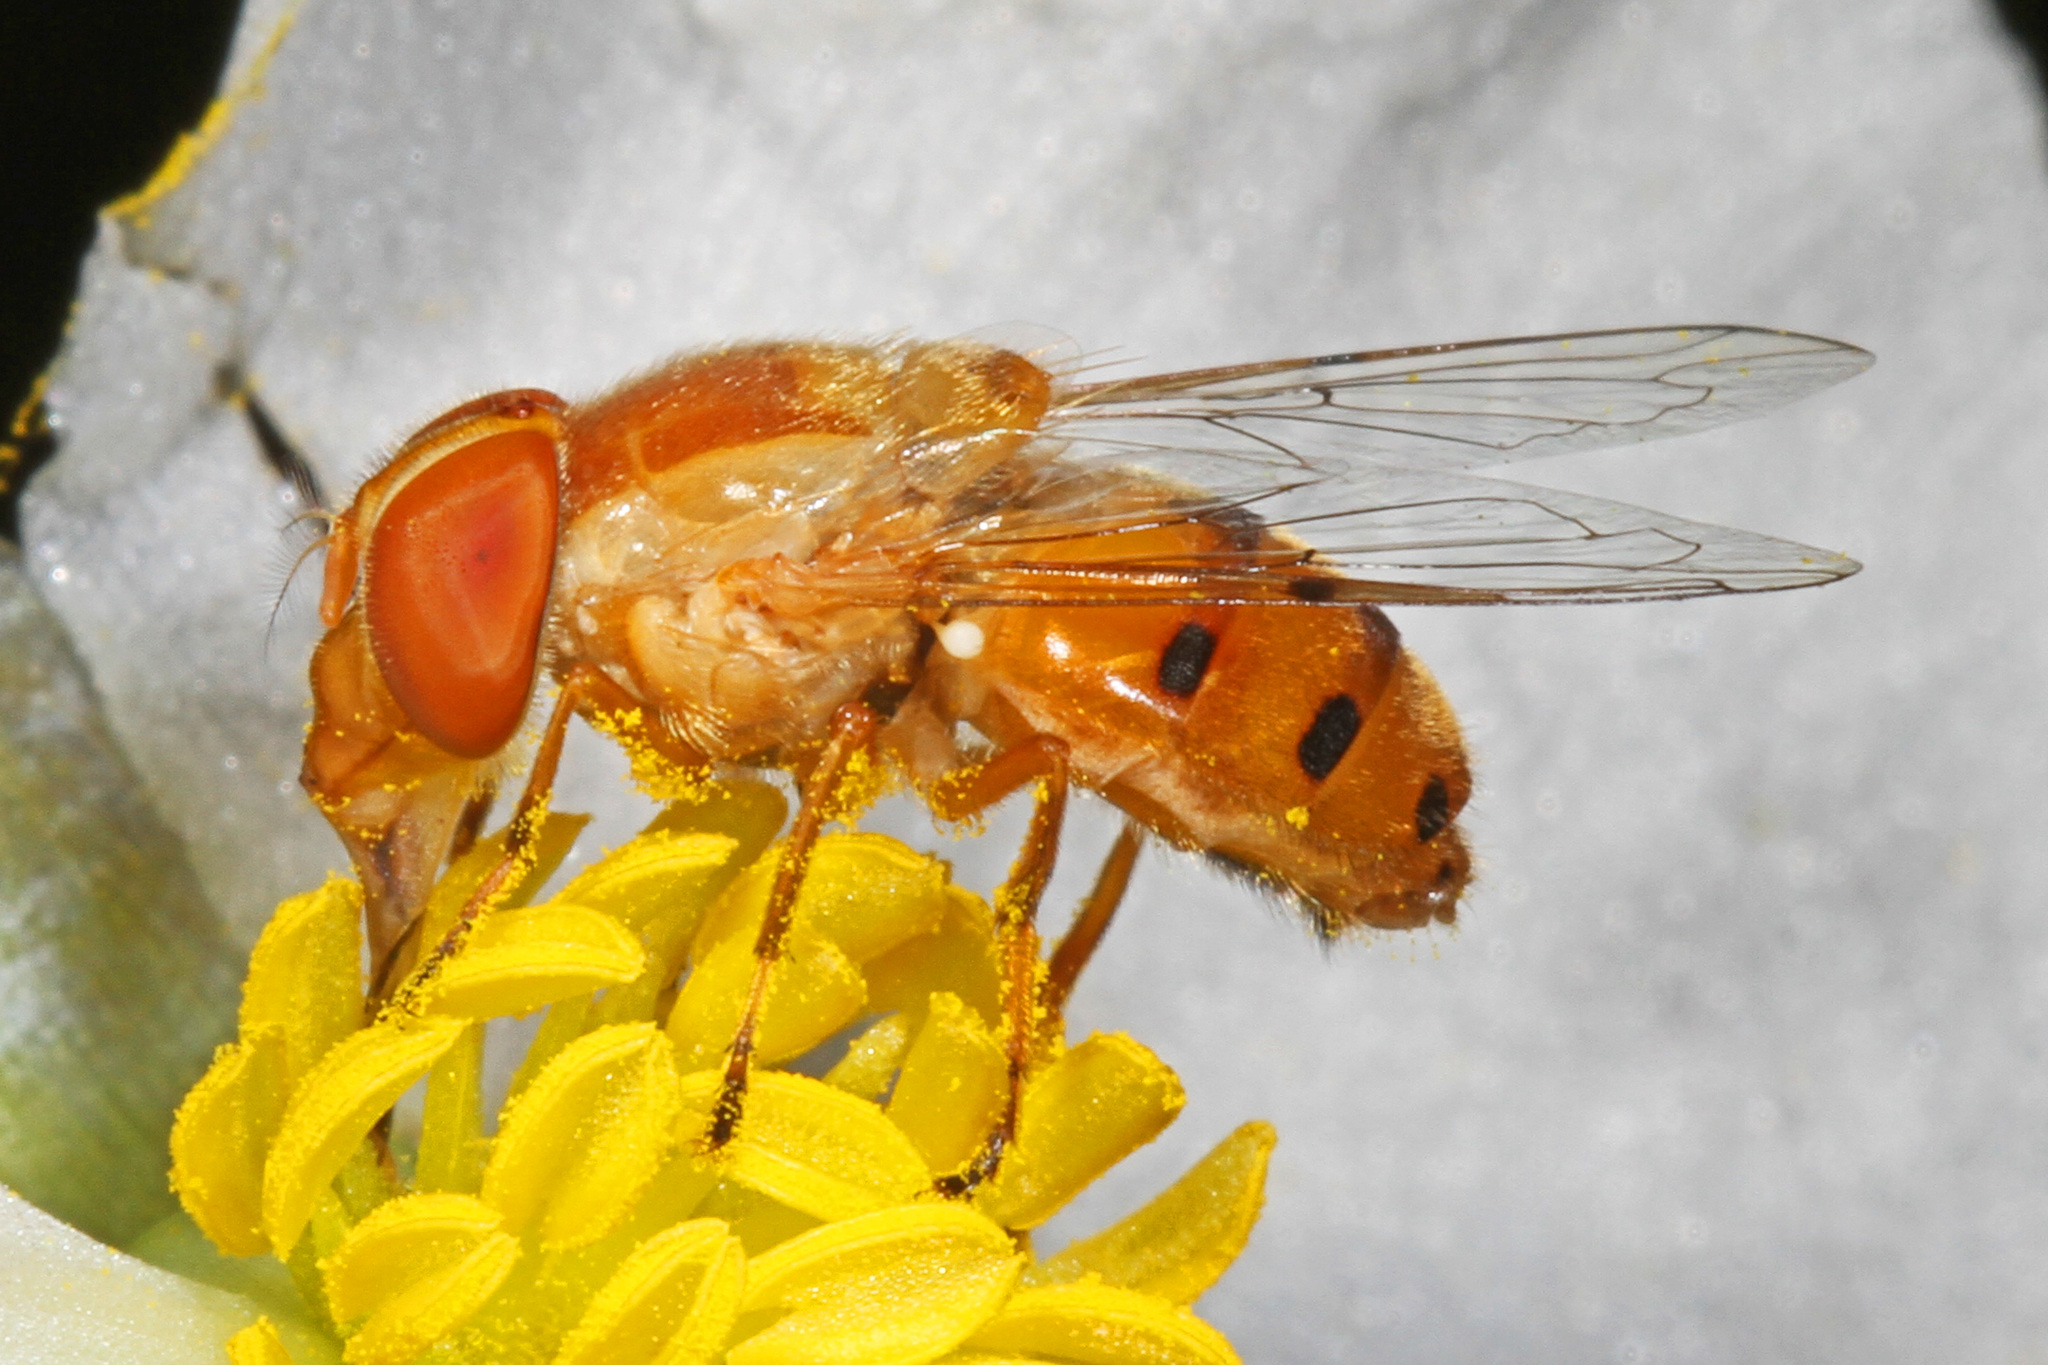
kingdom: Animalia
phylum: Arthropoda
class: Insecta
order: Diptera
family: Syrphidae
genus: Copestylum
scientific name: Copestylum sexmaculatum
